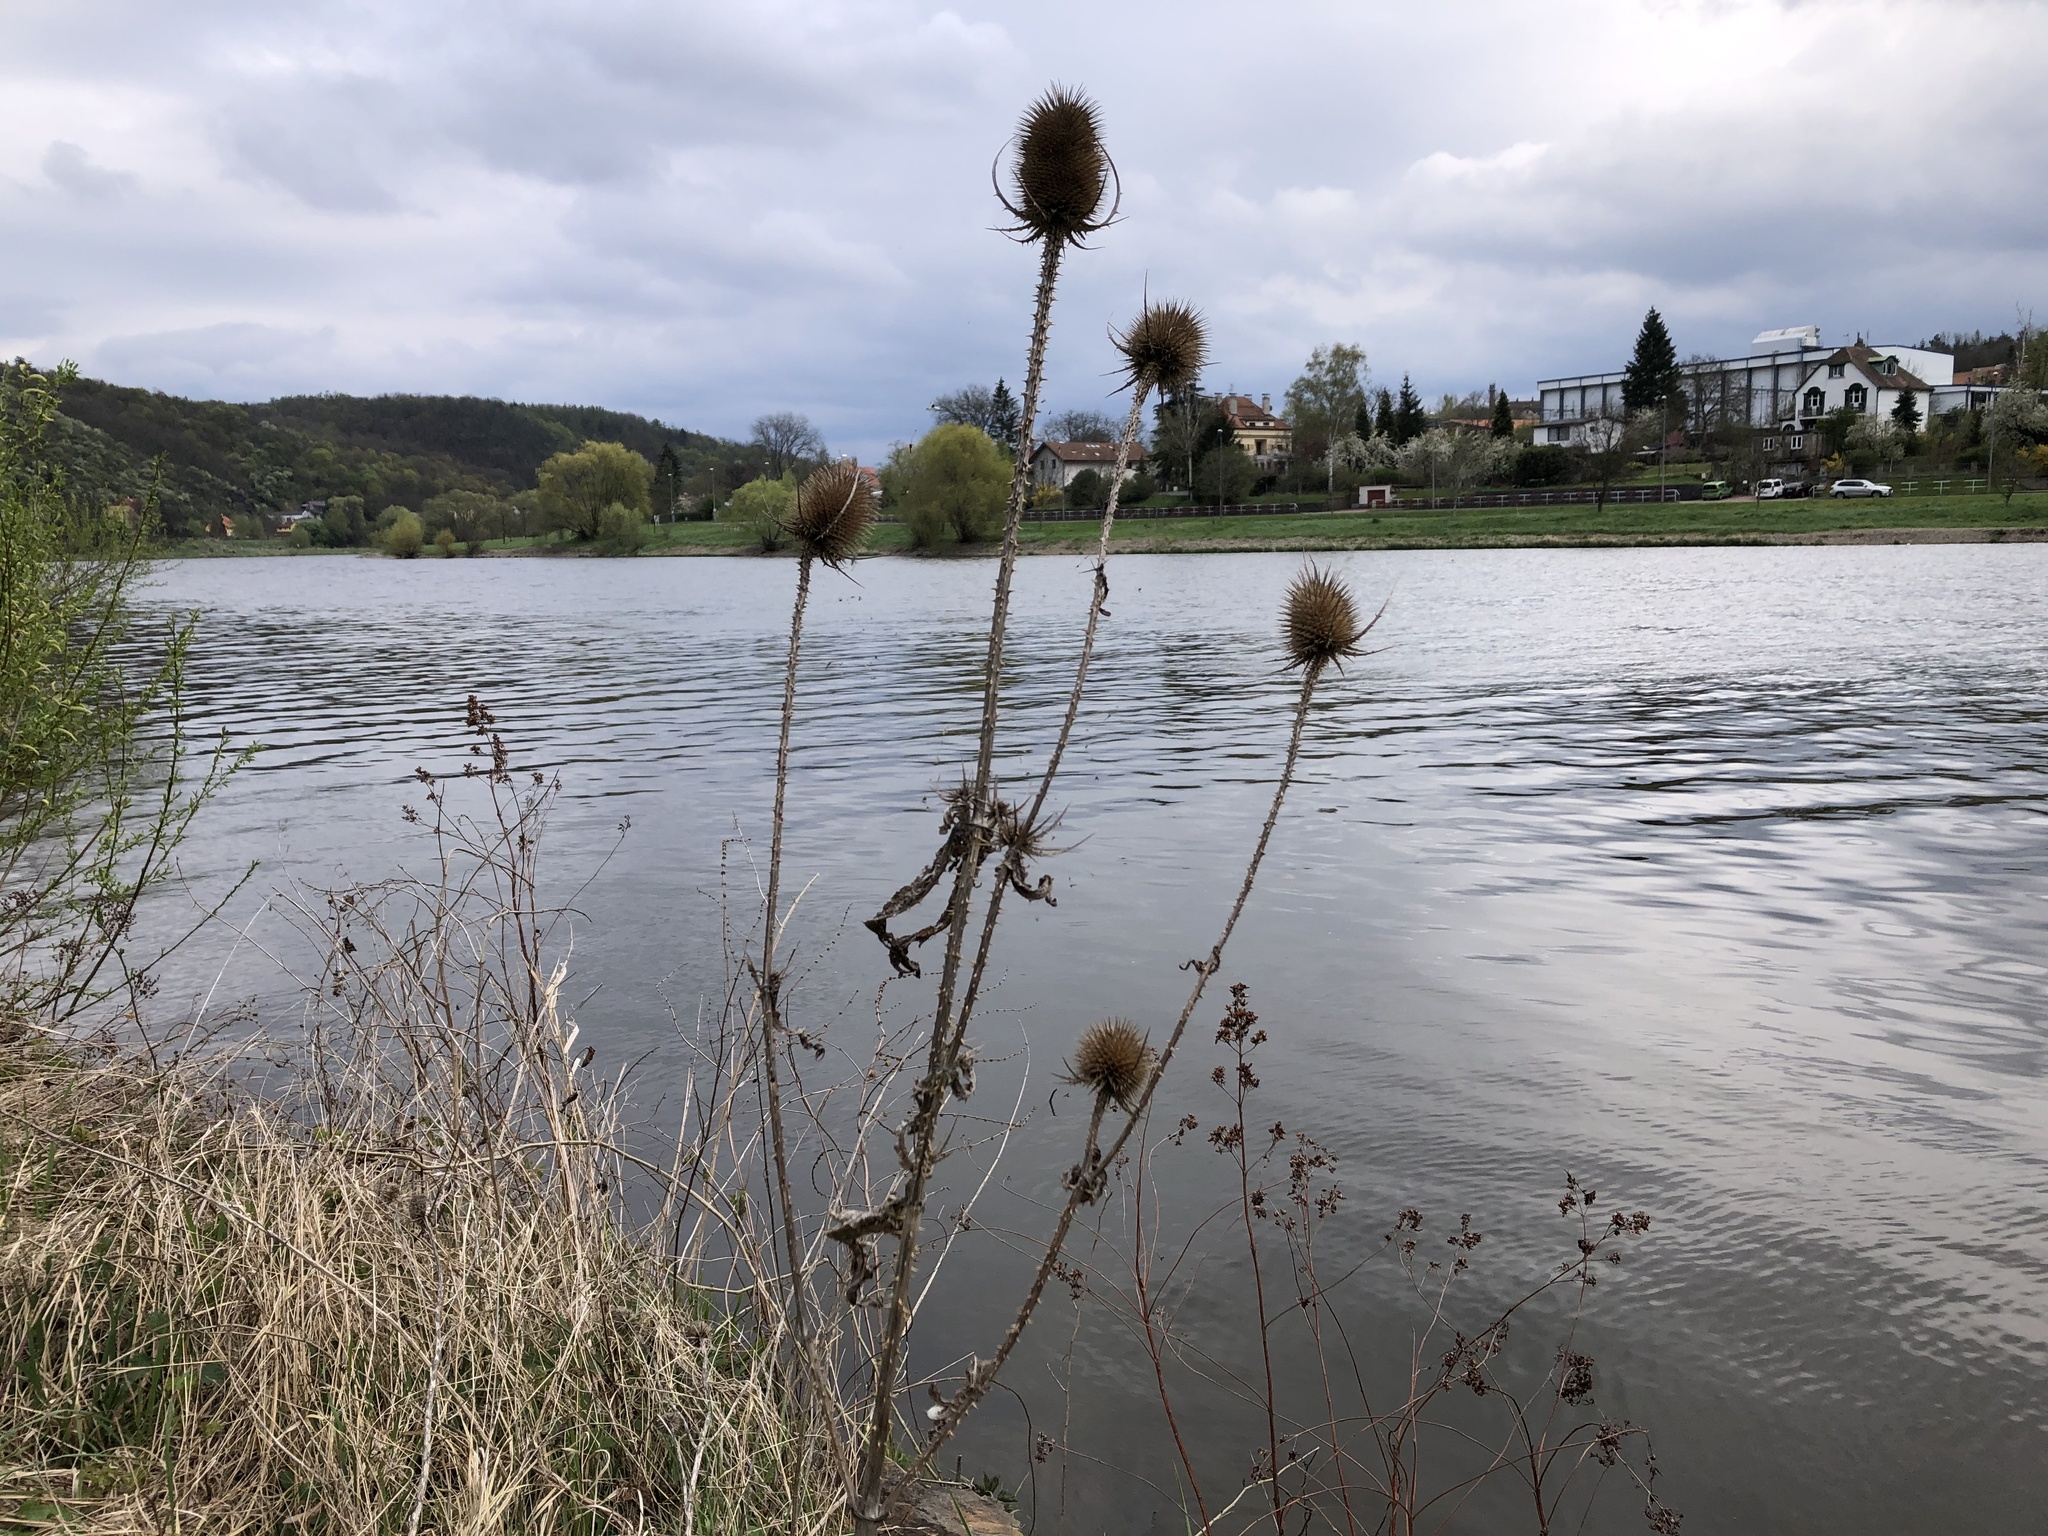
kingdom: Plantae
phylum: Tracheophyta
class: Magnoliopsida
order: Dipsacales
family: Caprifoliaceae
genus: Dipsacus
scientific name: Dipsacus fullonum
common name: Teasel
